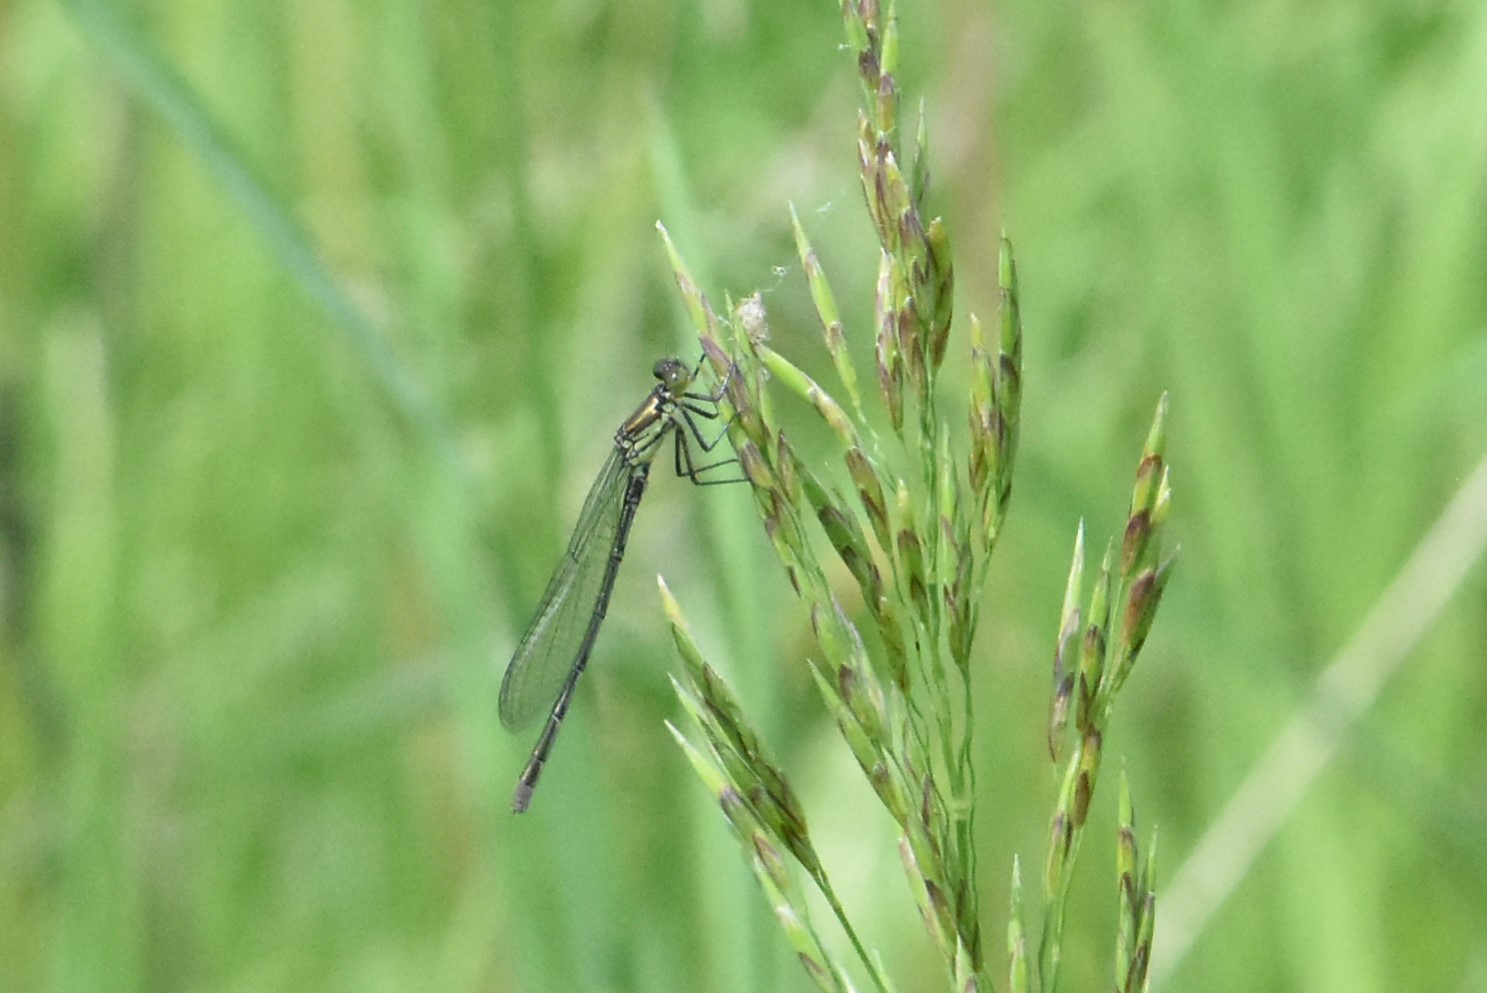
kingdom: Animalia
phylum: Arthropoda
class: Insecta
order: Odonata
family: Coenagrionidae
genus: Erythromma
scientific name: Erythromma najas
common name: Red-eyed damselfly
